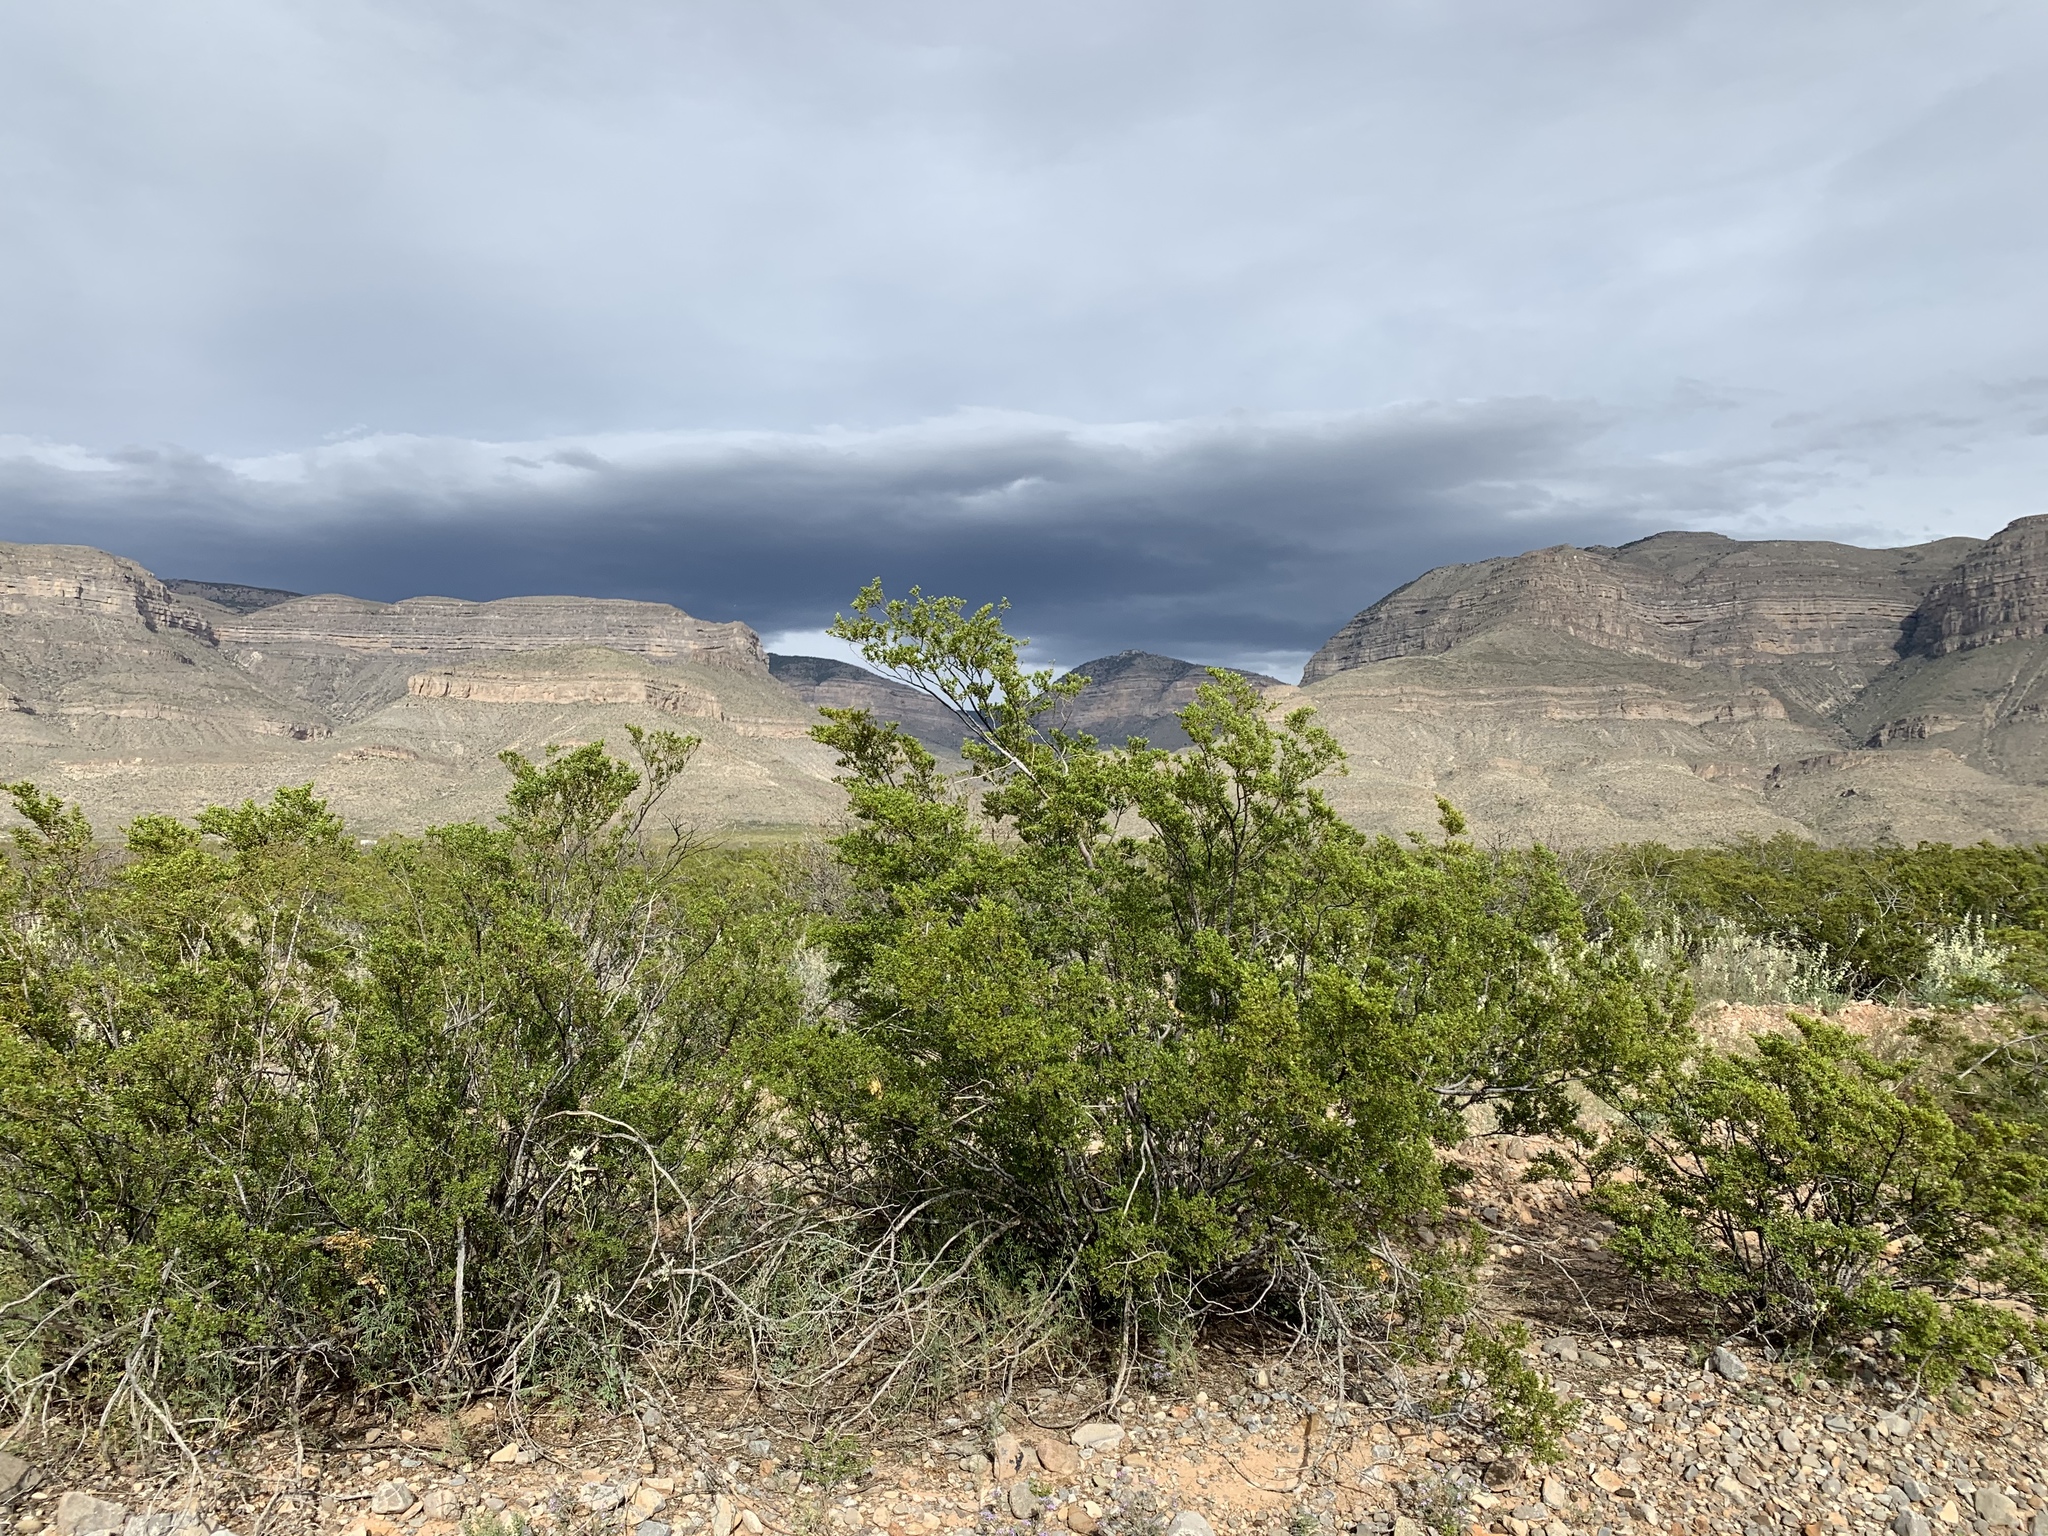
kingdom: Plantae
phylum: Tracheophyta
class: Magnoliopsida
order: Zygophyllales
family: Zygophyllaceae
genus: Larrea
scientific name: Larrea tridentata
